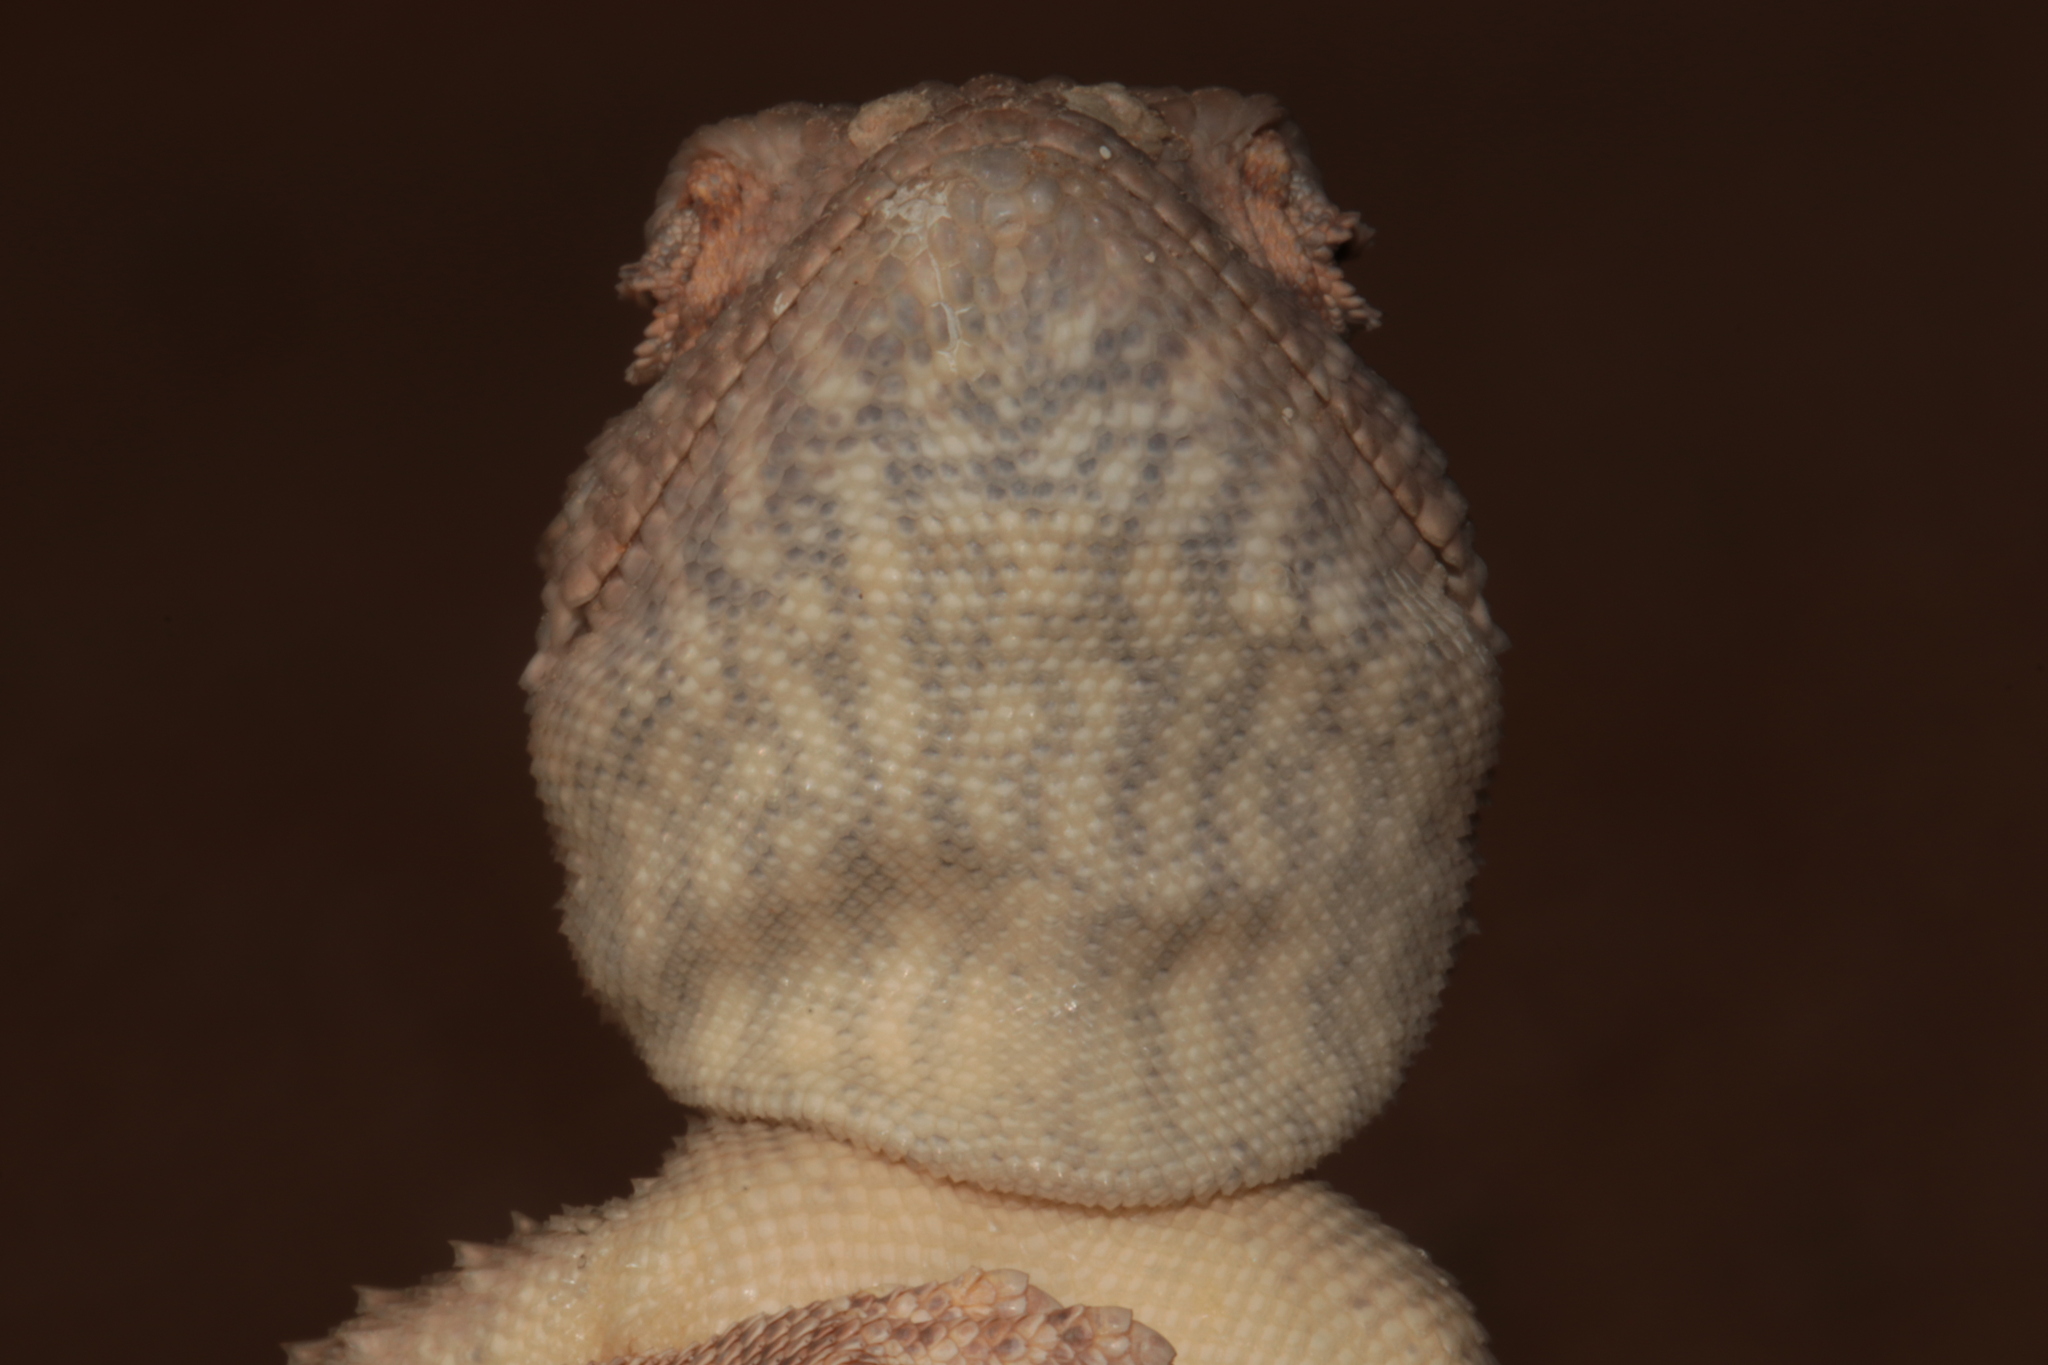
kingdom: Animalia
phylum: Chordata
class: Squamata
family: Agamidae
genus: Trapelus
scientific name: Trapelus agnetae
